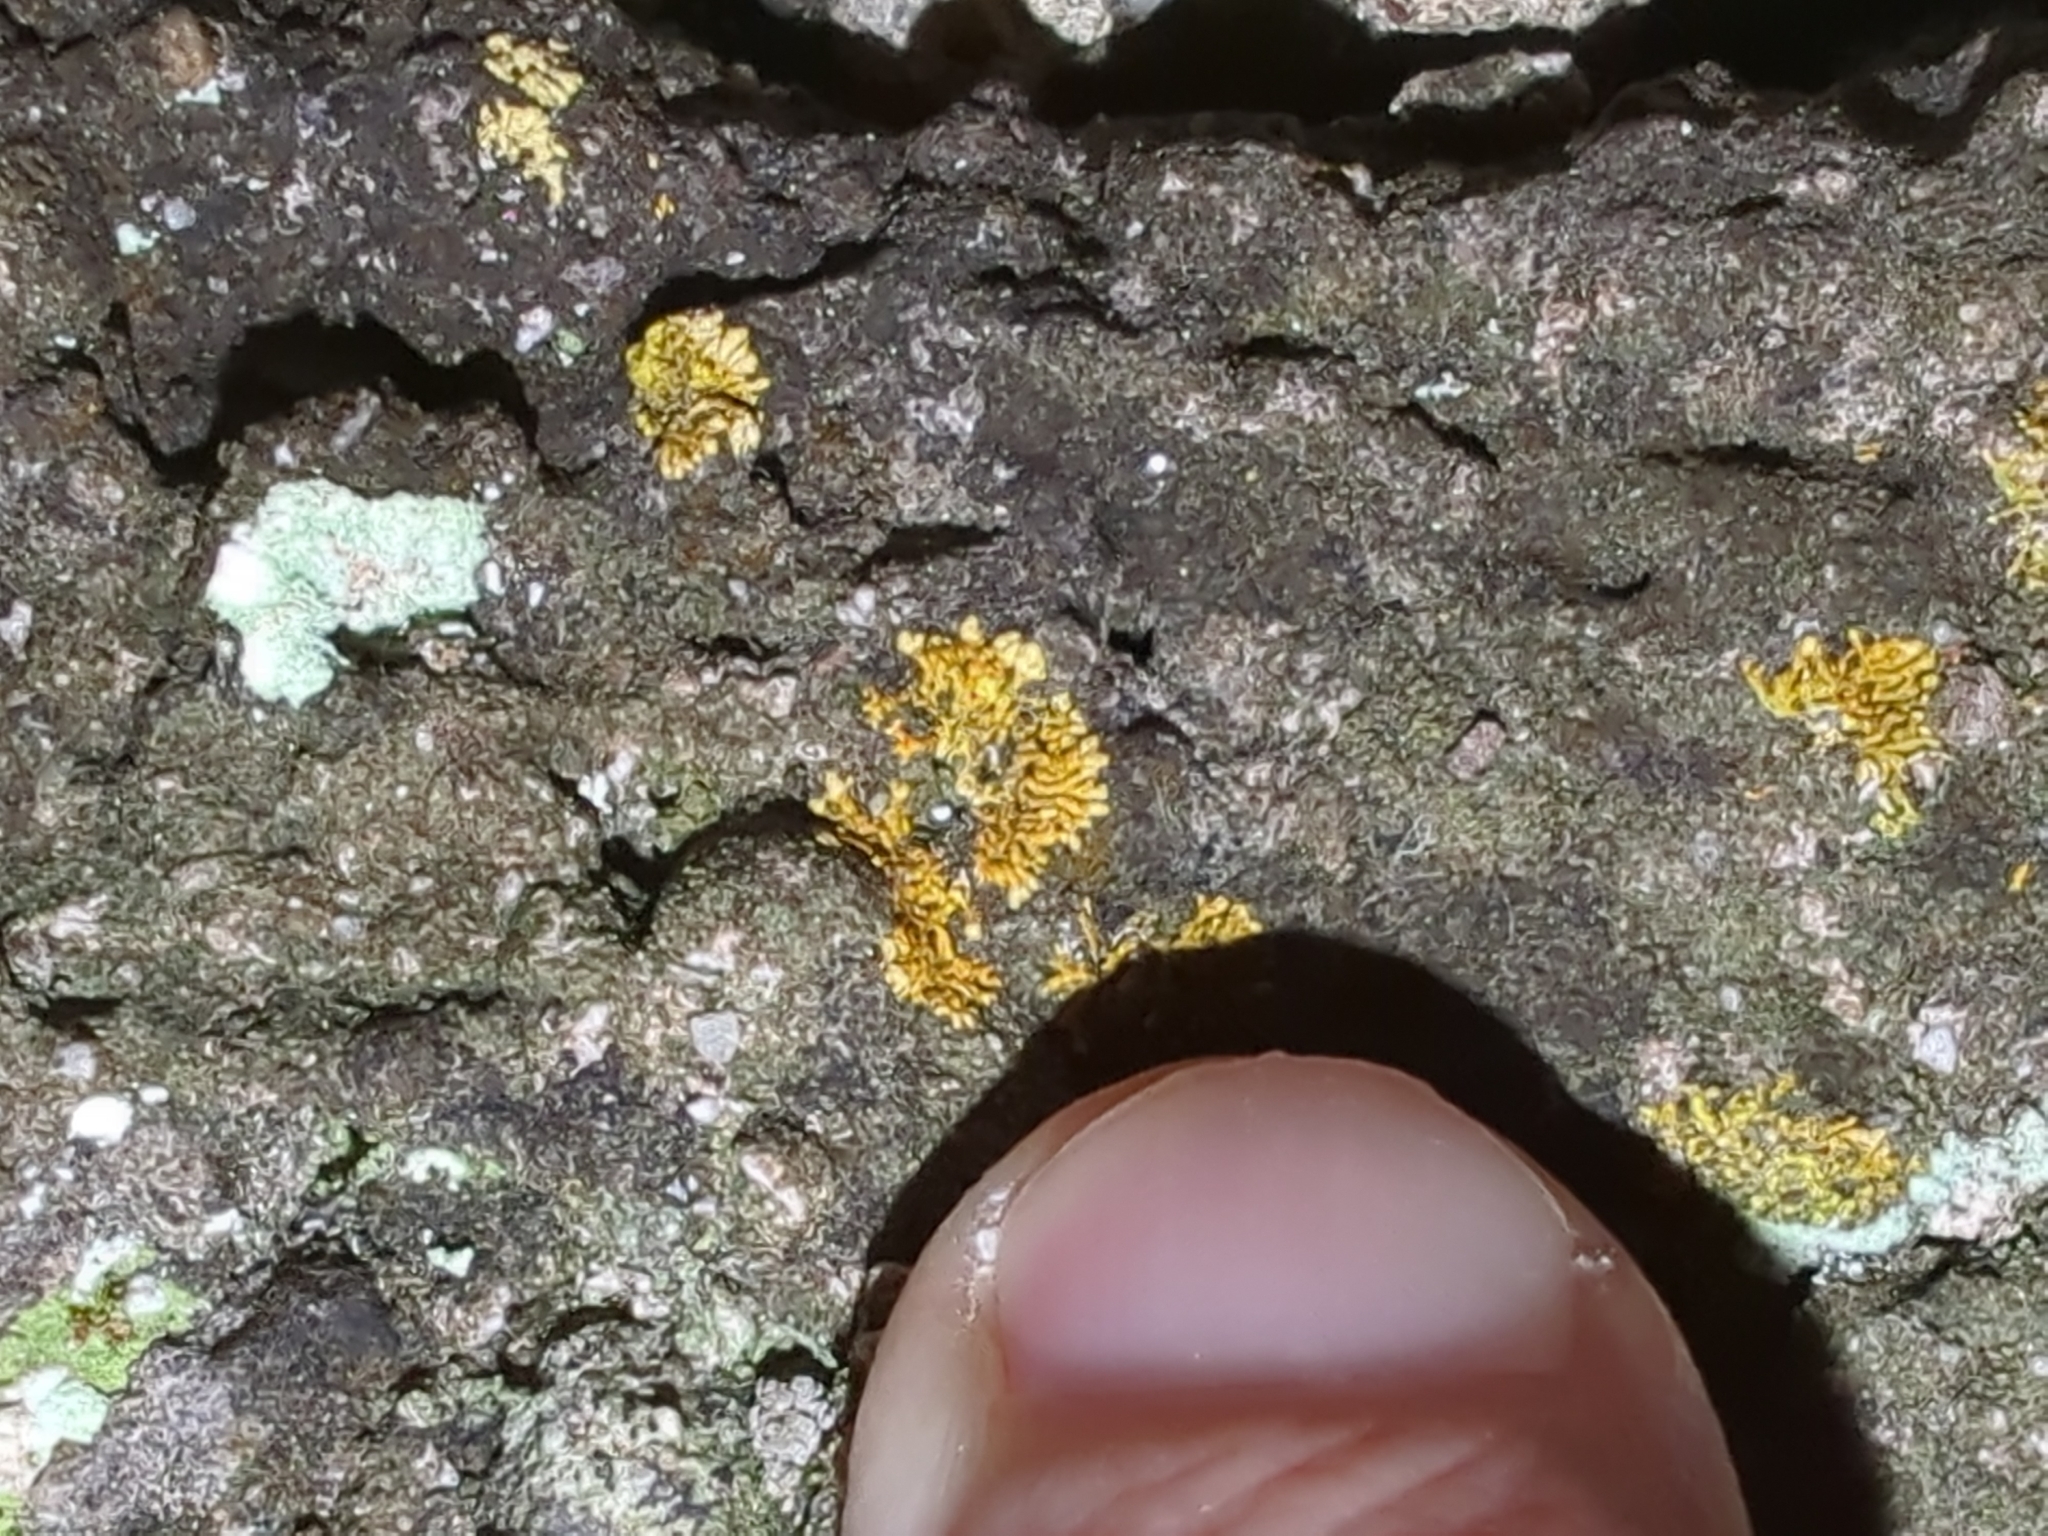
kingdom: Fungi
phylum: Ascomycota
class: Lecanoromycetes
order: Teloschistales
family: Teloschistaceae
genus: Leproplaca
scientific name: Leproplaca cirrochroa
